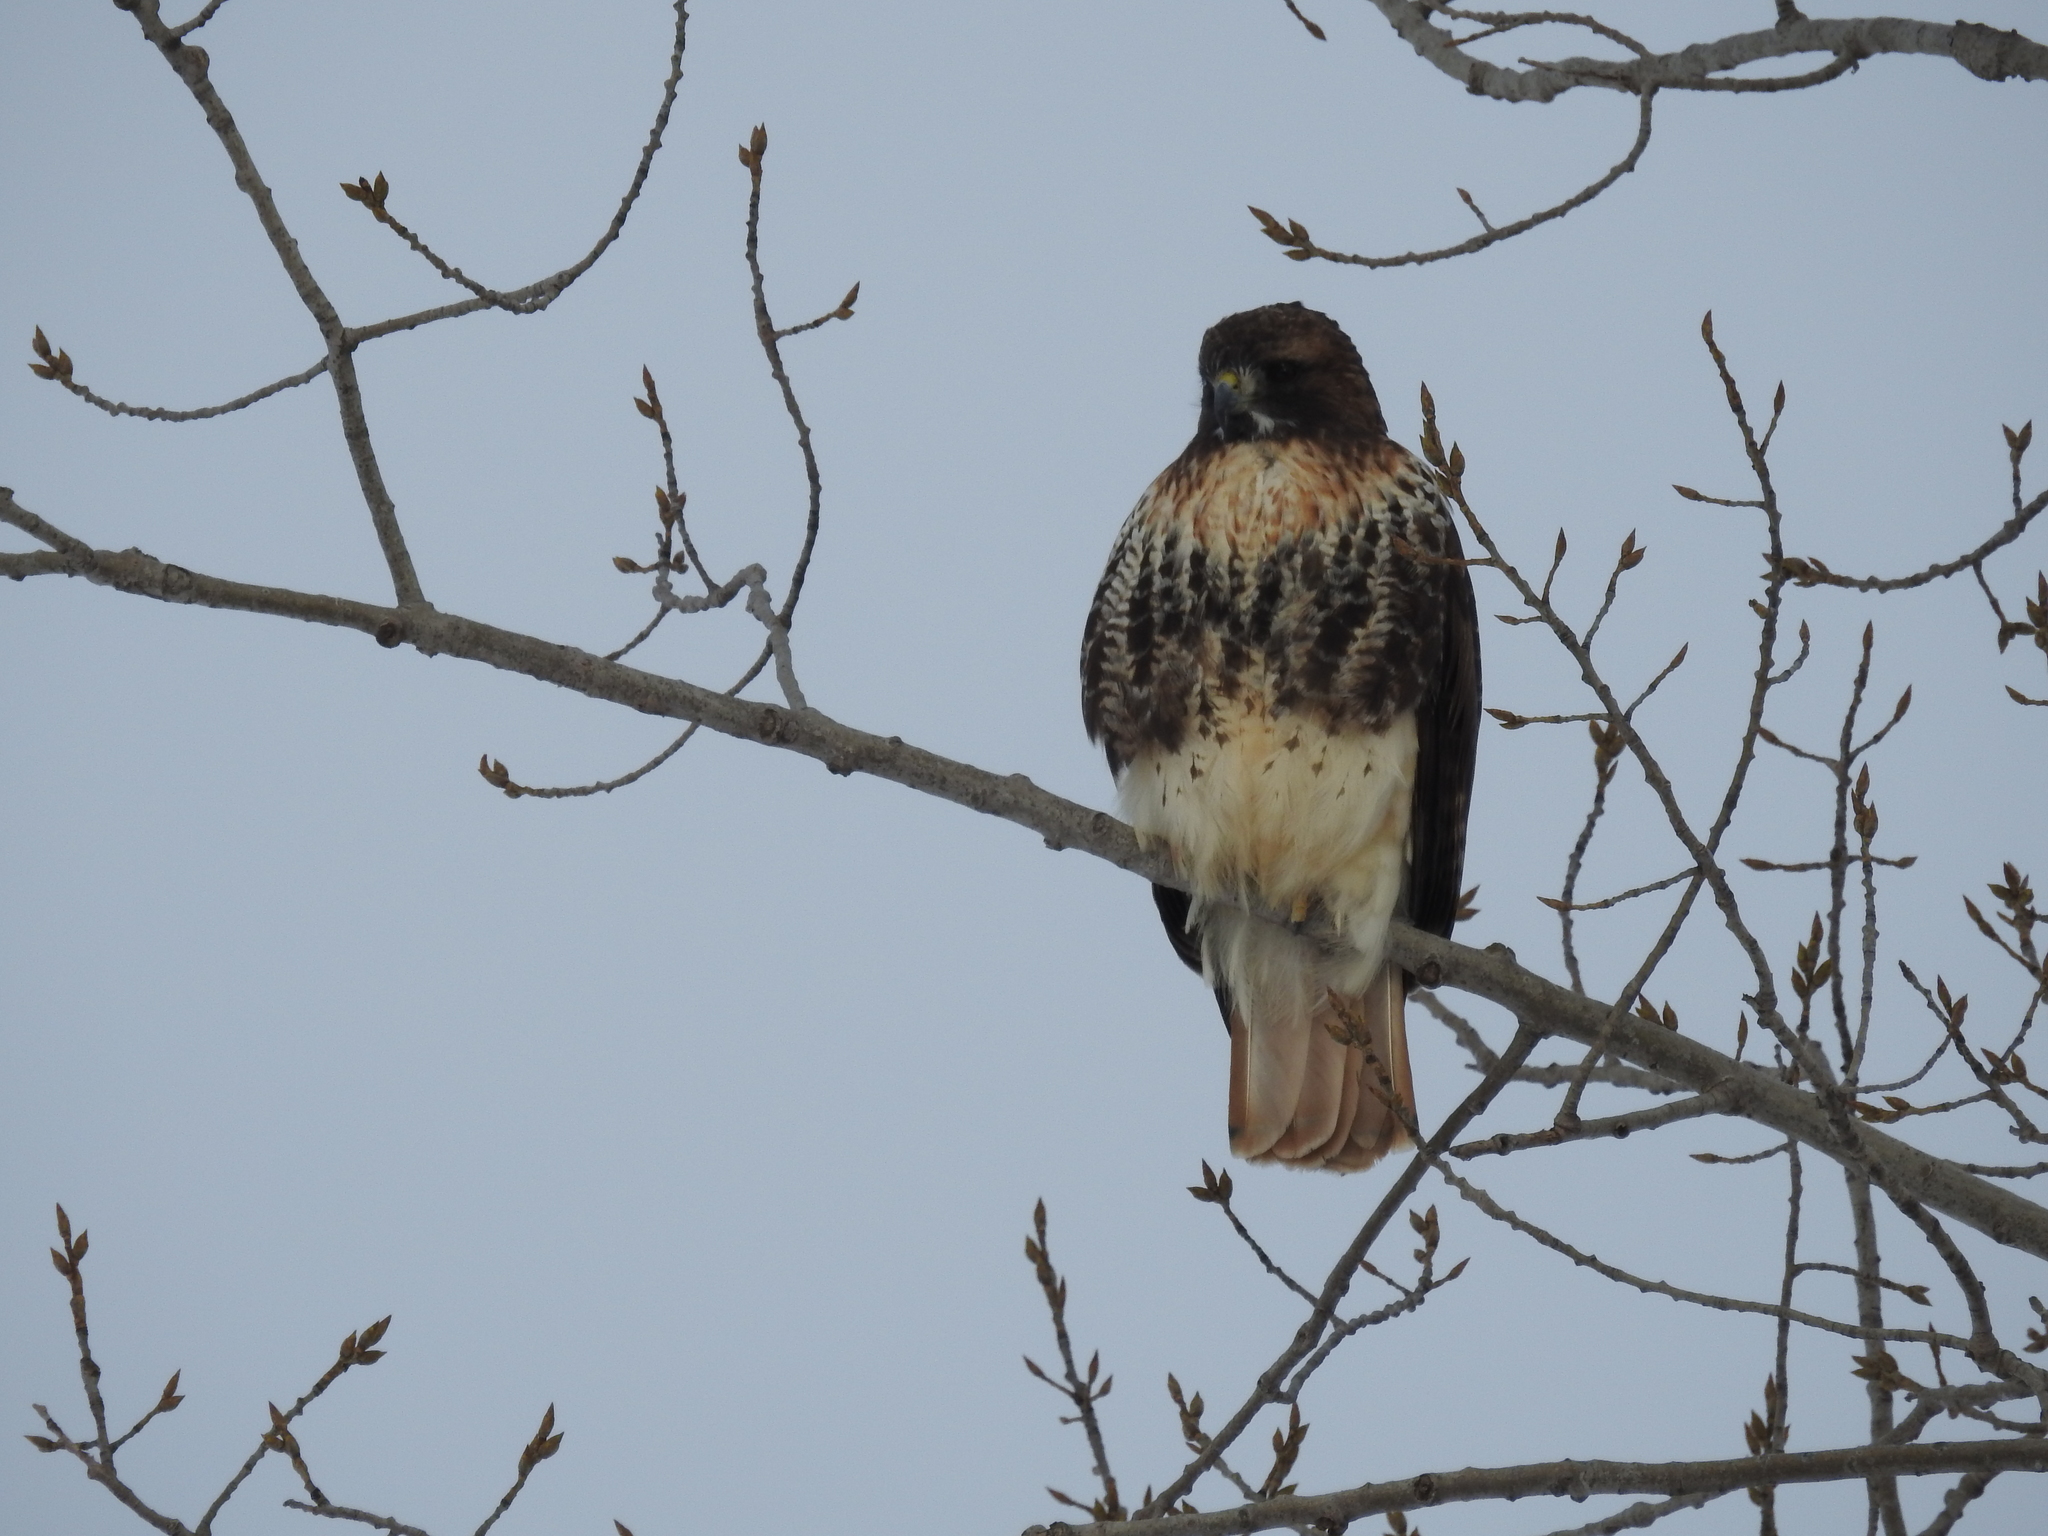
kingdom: Animalia
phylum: Chordata
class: Aves
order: Accipitriformes
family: Accipitridae
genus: Buteo
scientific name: Buteo jamaicensis
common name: Red-tailed hawk
